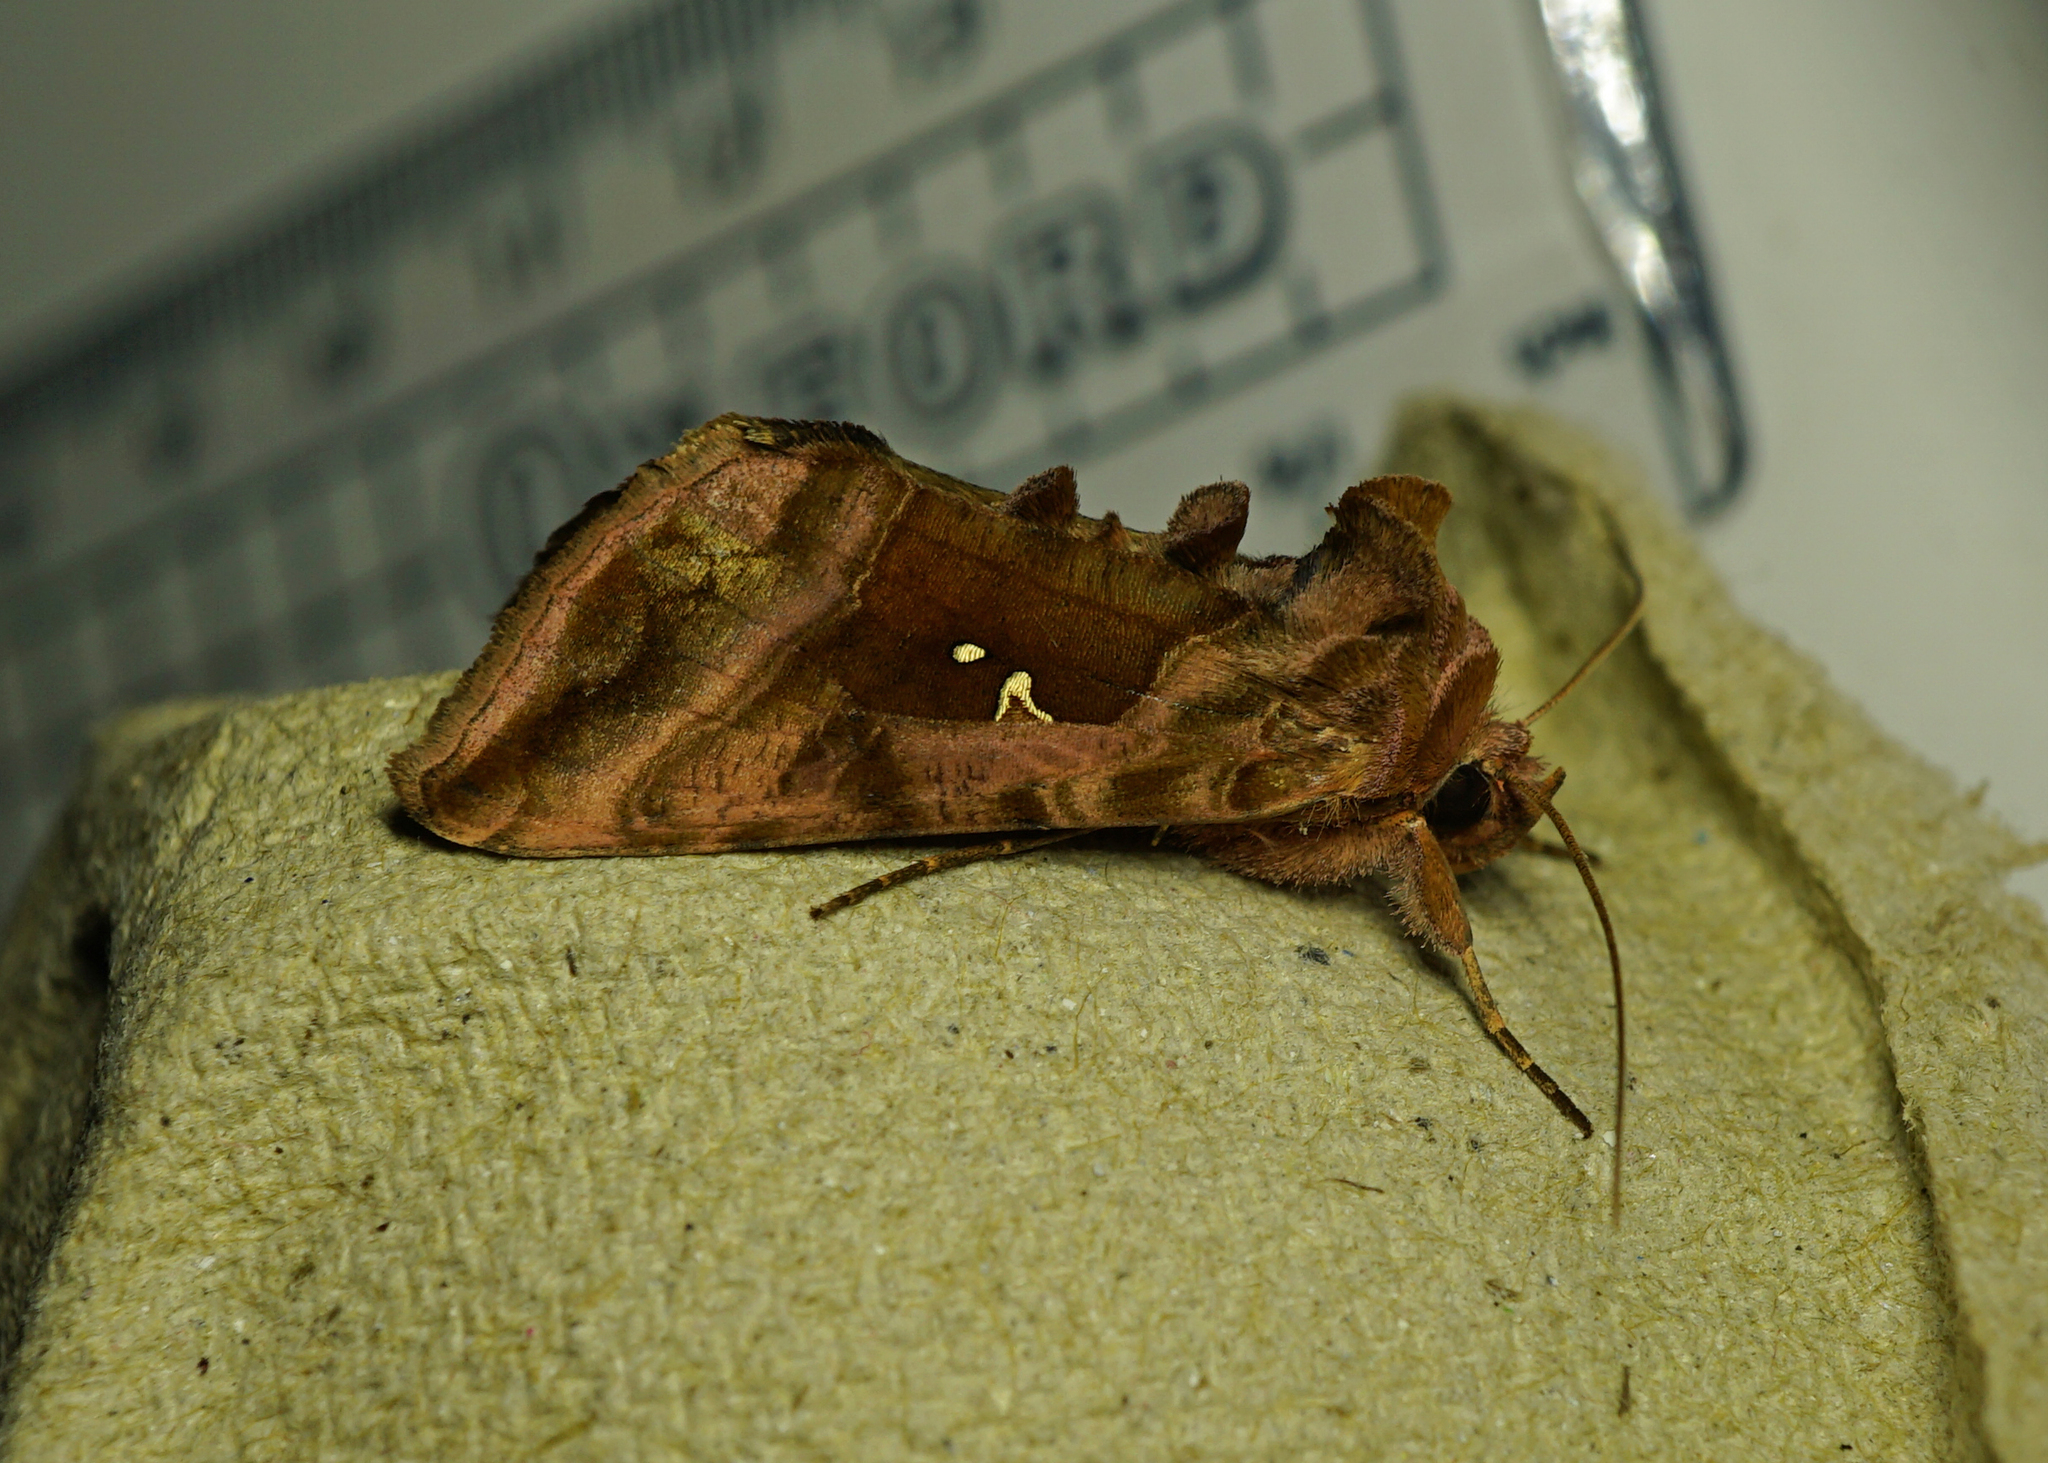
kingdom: Animalia
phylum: Arthropoda
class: Insecta
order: Lepidoptera
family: Noctuidae
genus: Autographa
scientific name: Autographa jota
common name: Plain golden y
